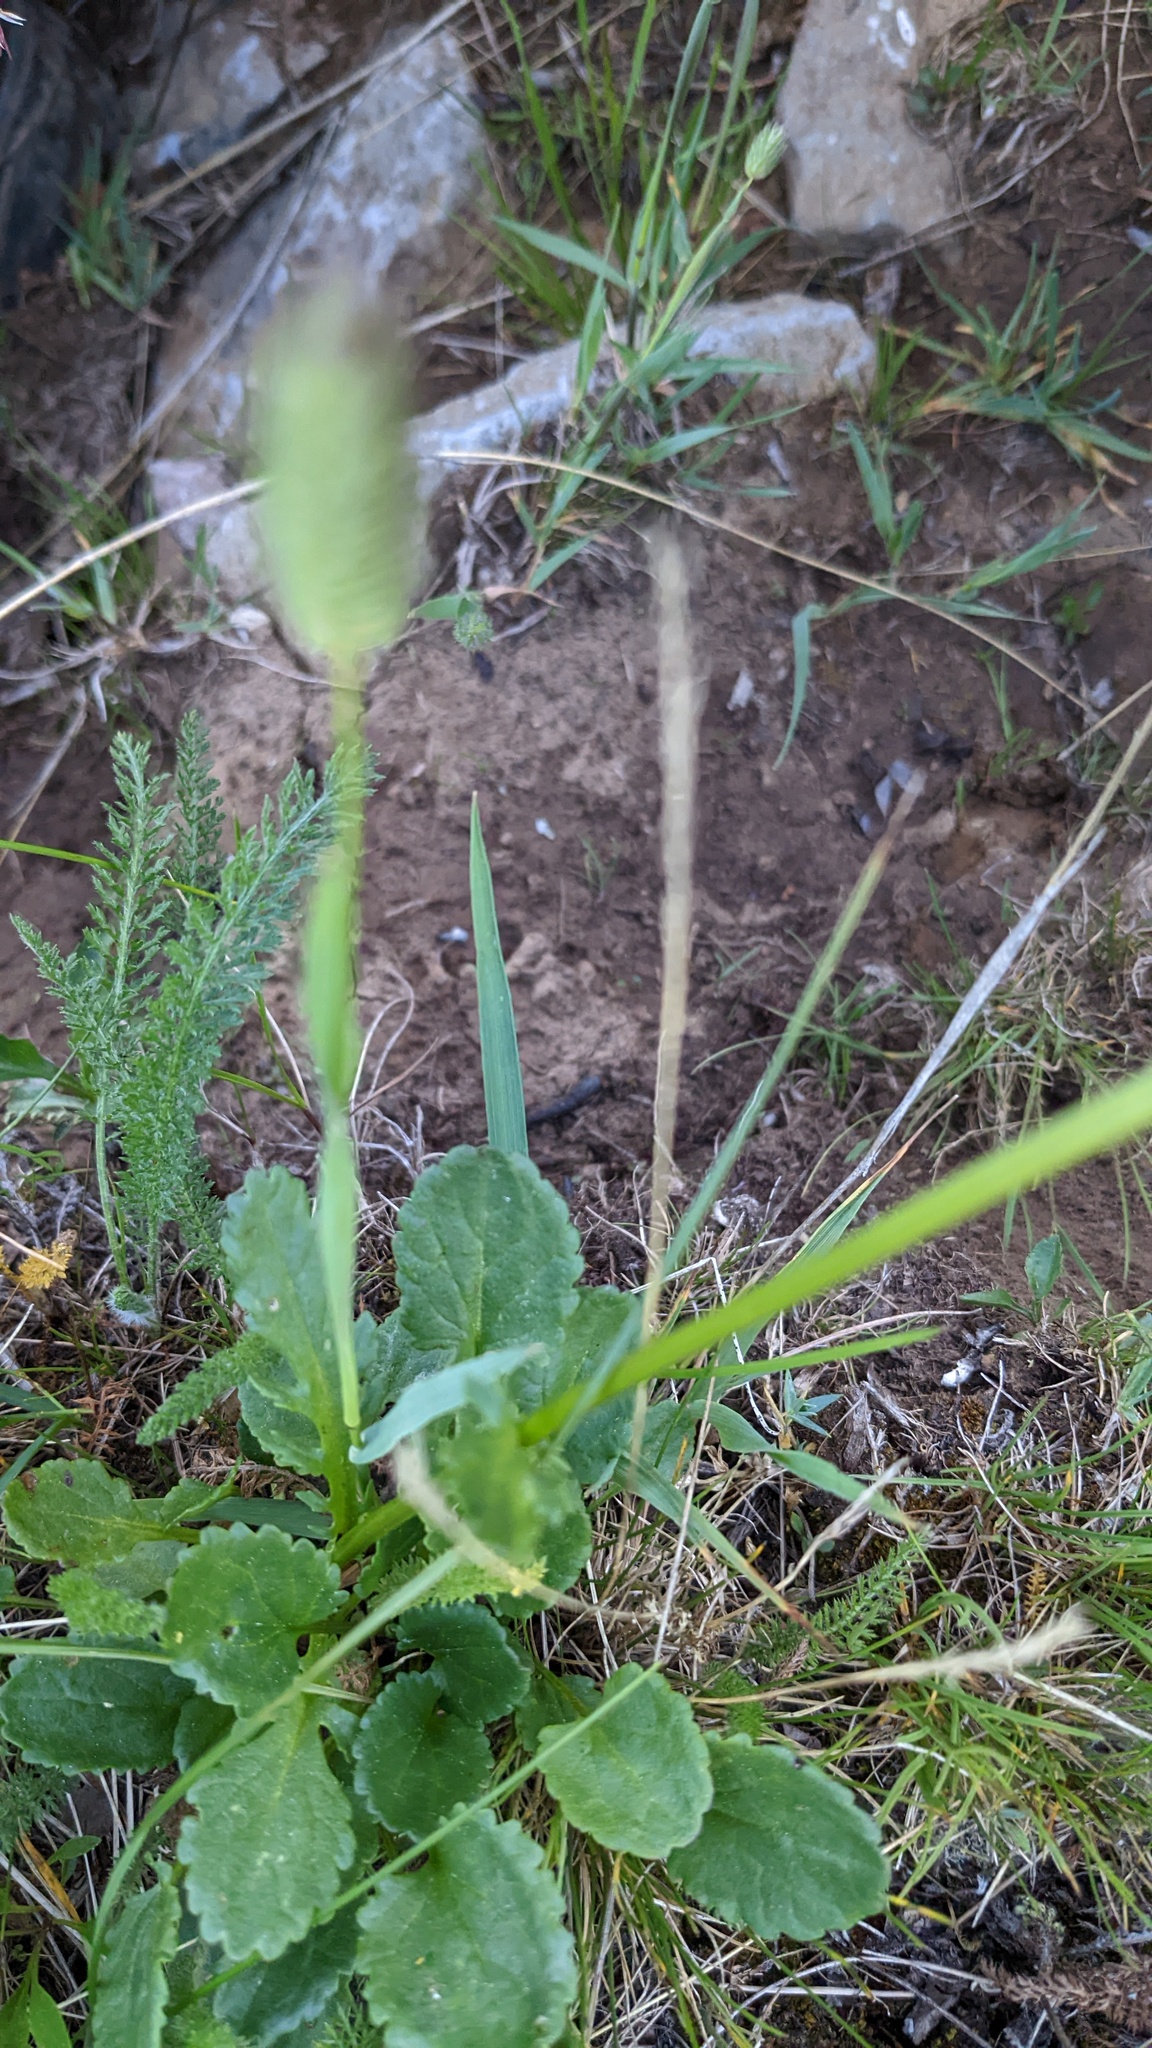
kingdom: Plantae
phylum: Tracheophyta
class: Magnoliopsida
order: Asterales
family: Asteraceae
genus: Packera
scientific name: Packera pauciflora
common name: Alpine groundsel
